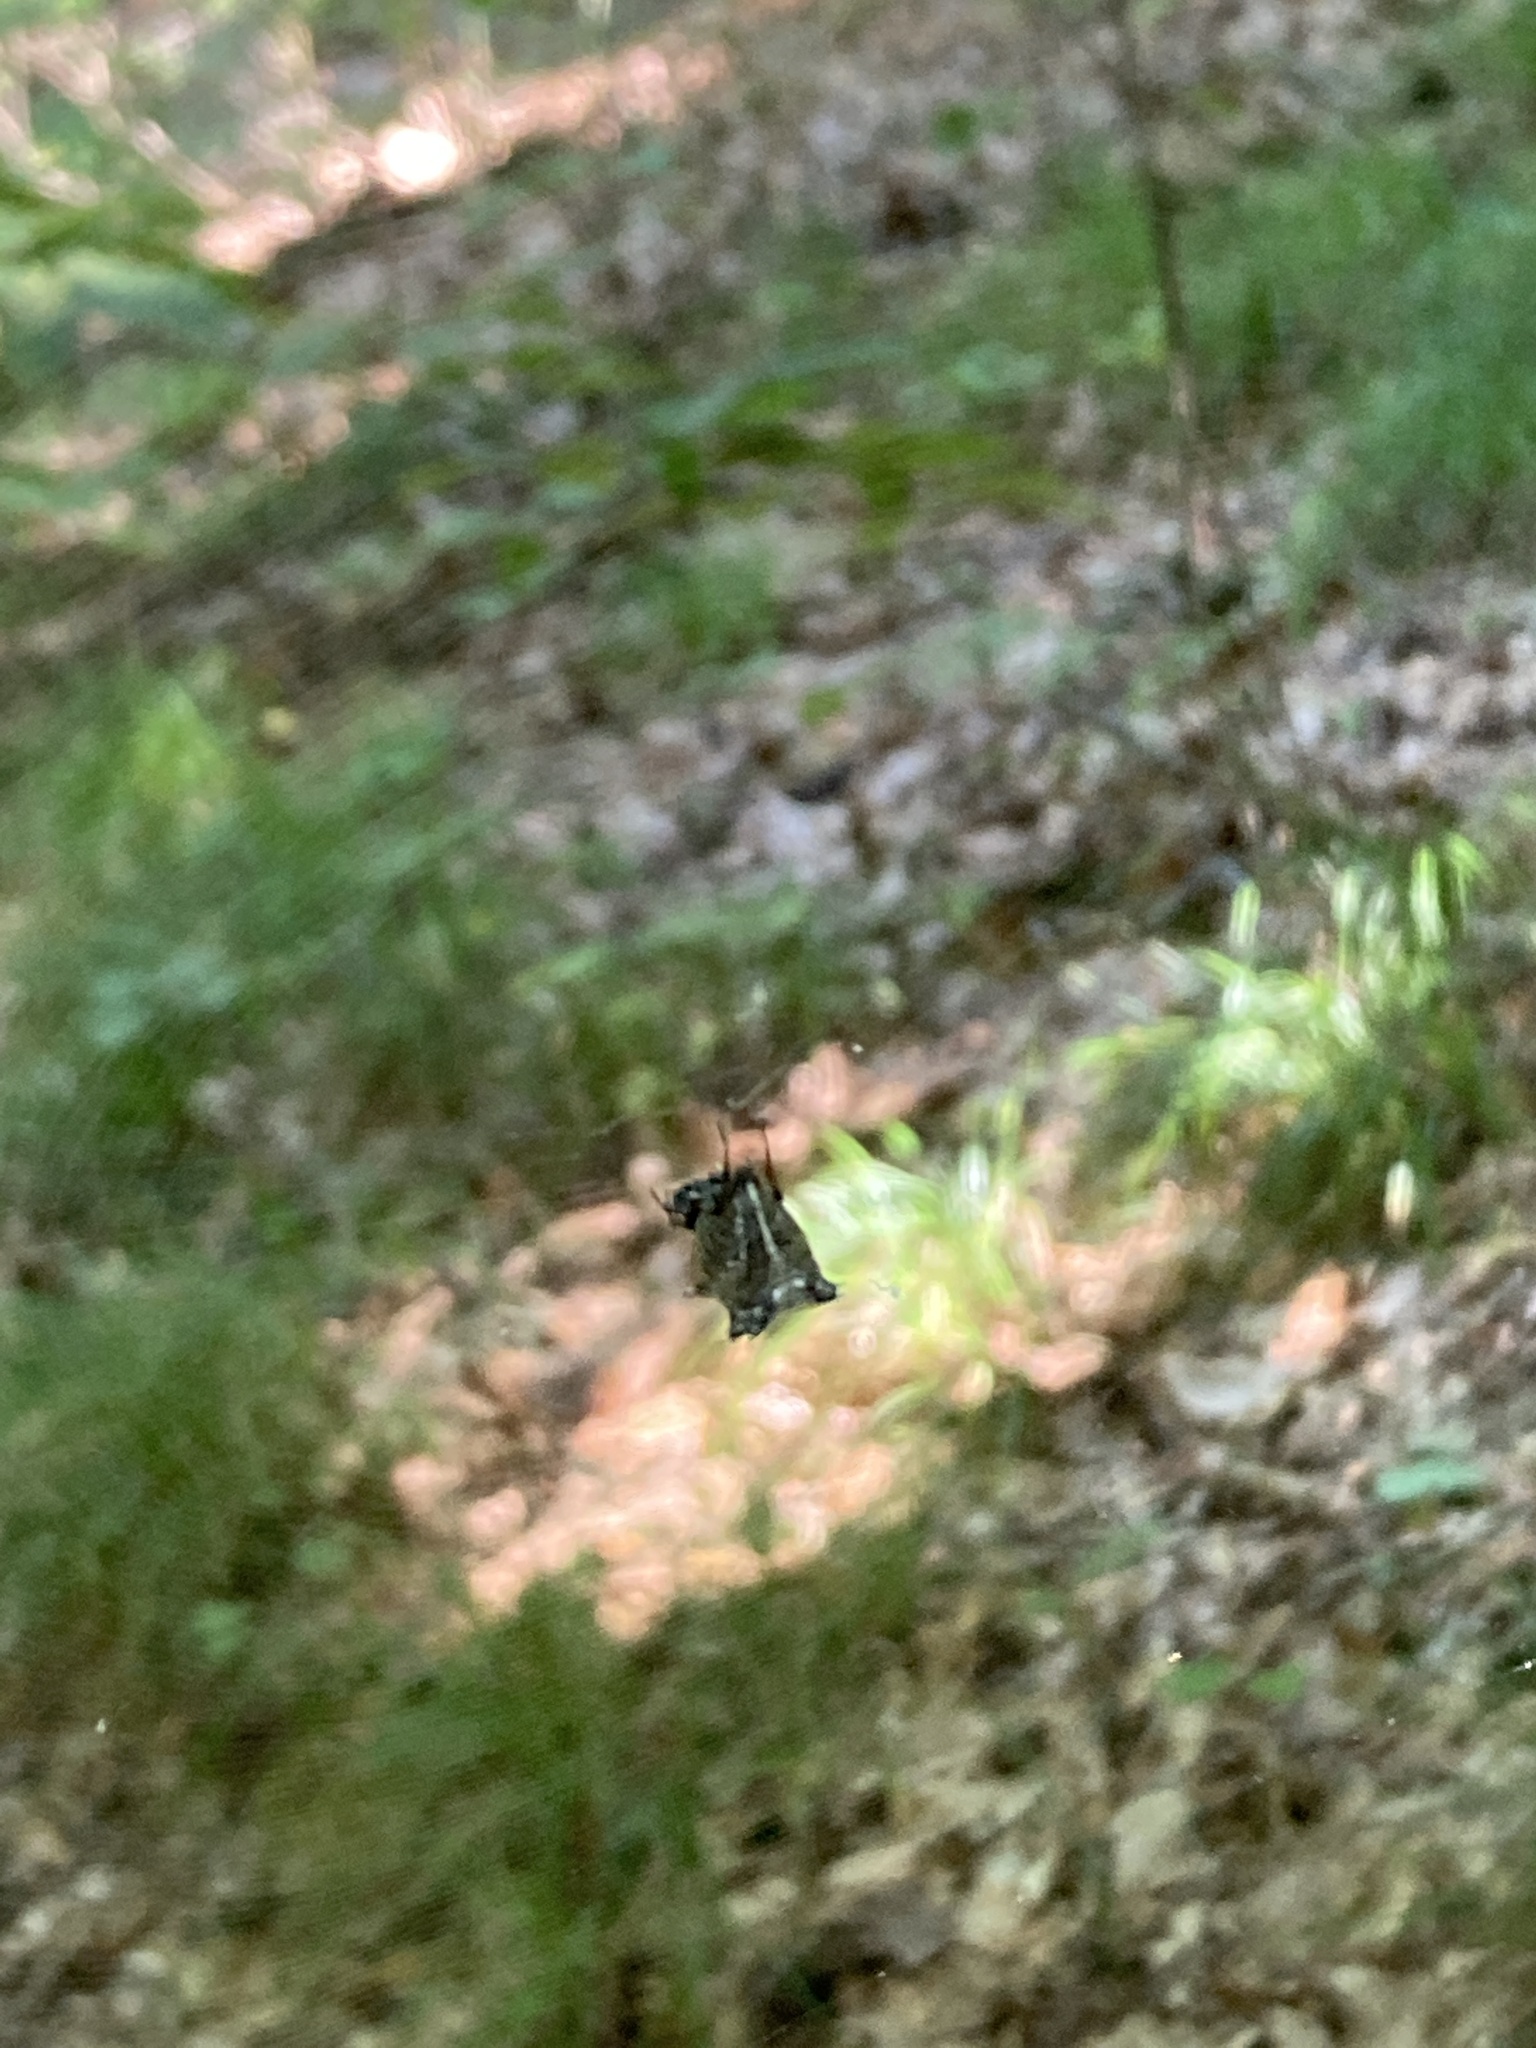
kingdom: Animalia
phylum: Arthropoda
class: Arachnida
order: Araneae
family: Araneidae
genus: Micrathena
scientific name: Micrathena gracilis
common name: Orb weavers
